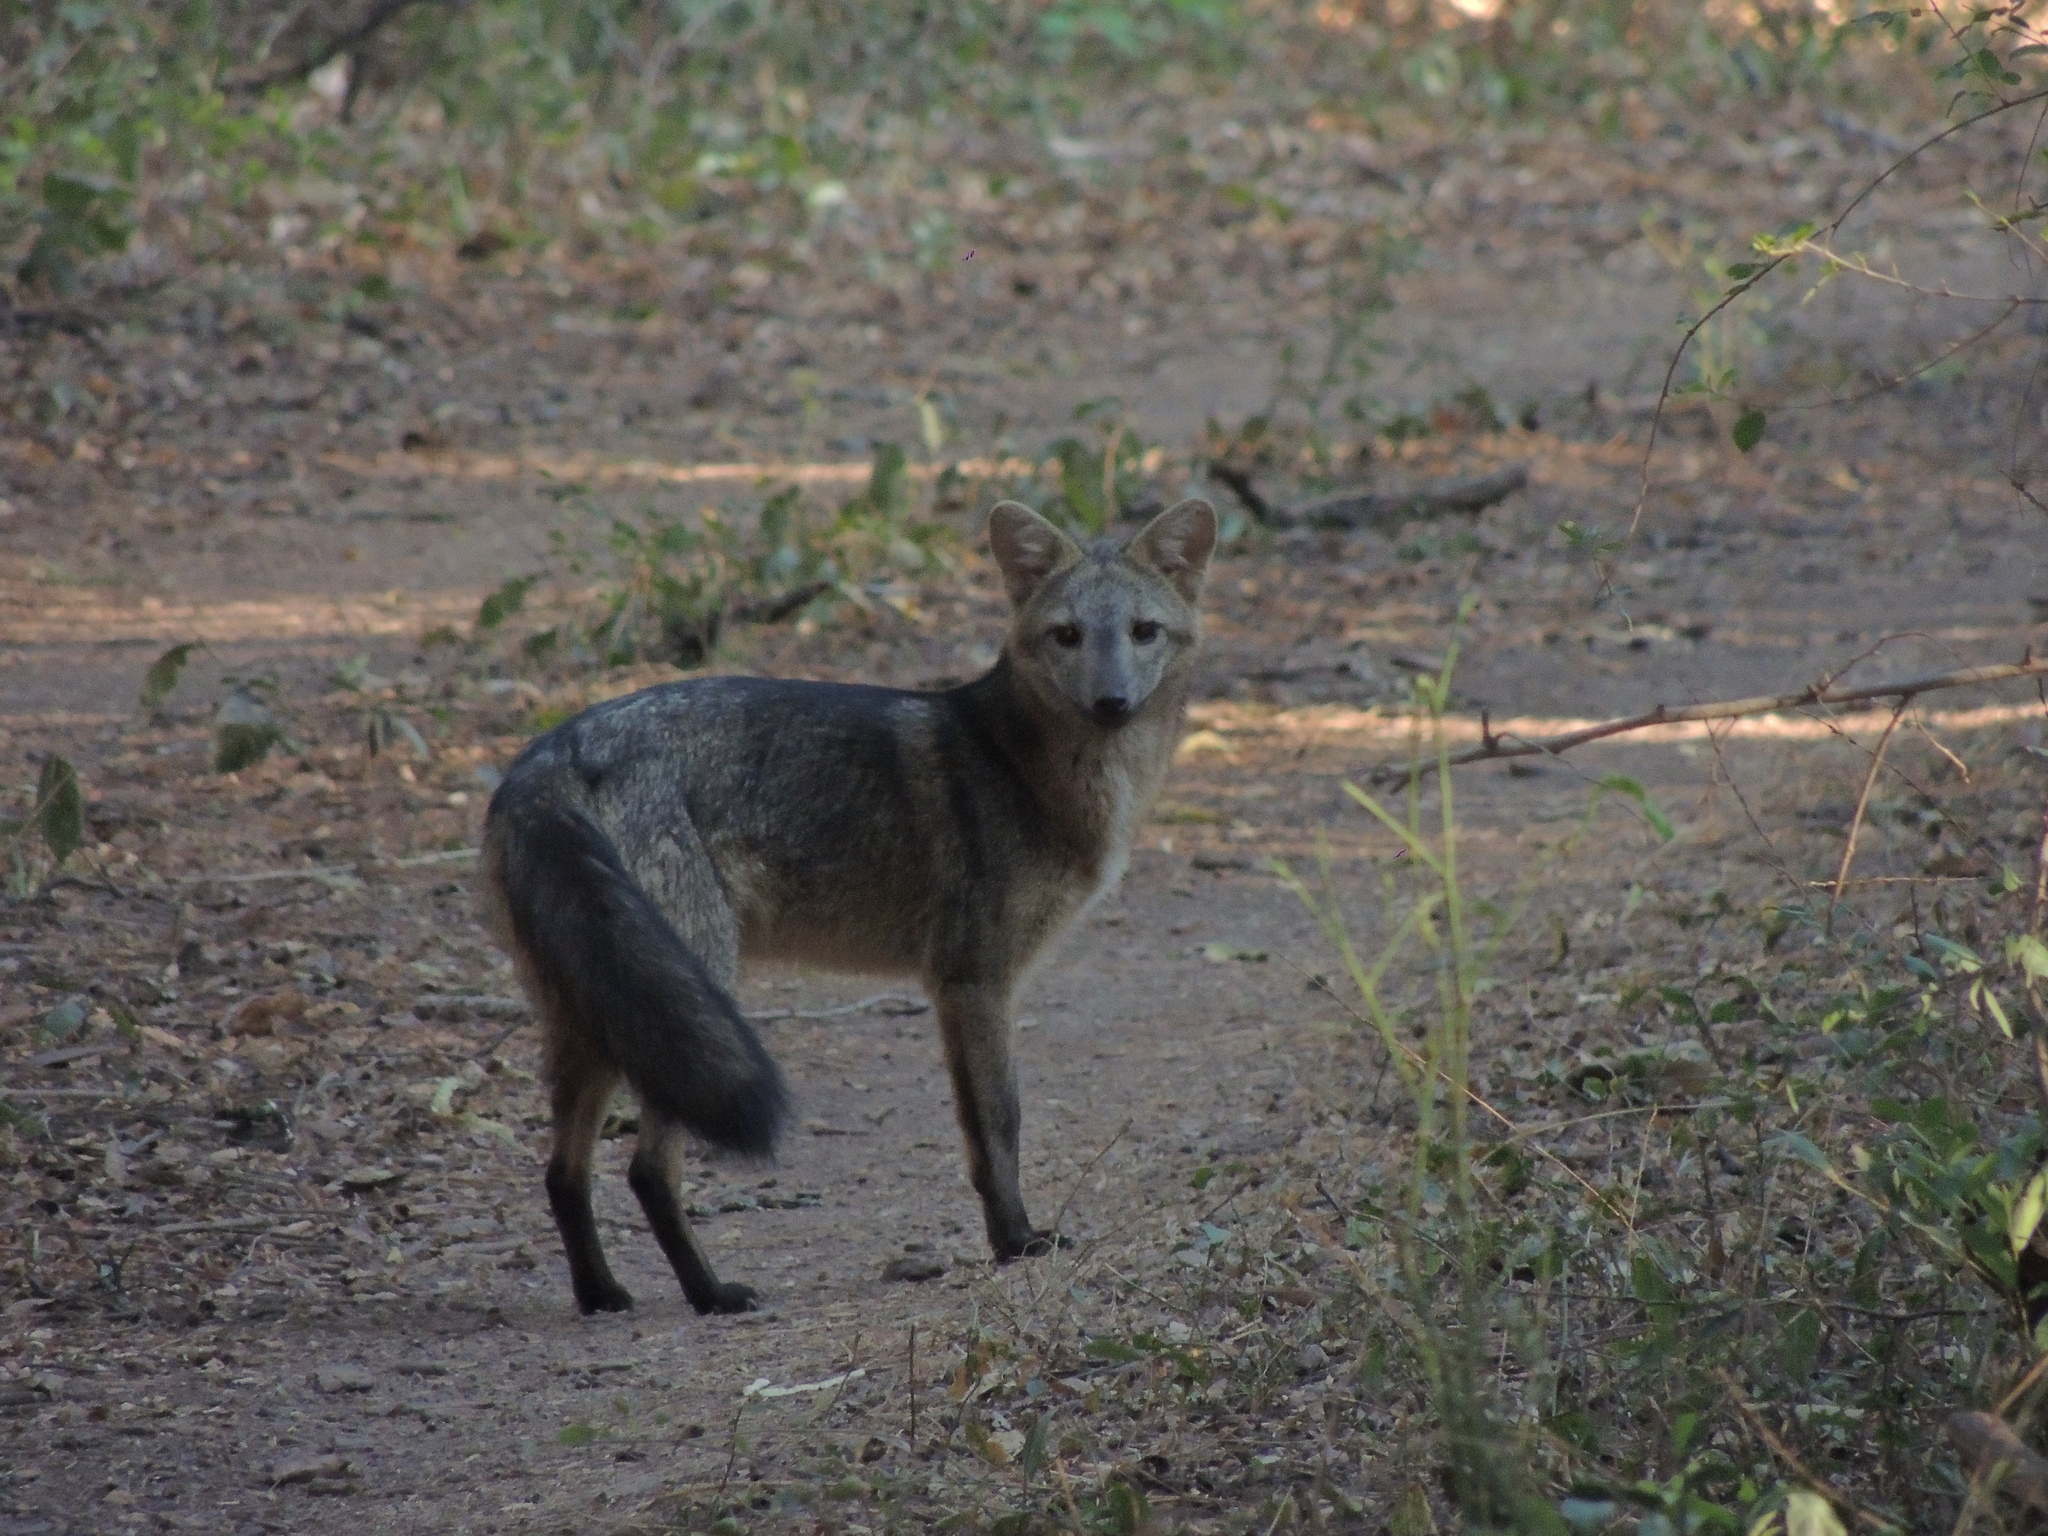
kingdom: Animalia
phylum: Chordata
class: Mammalia
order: Carnivora
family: Canidae
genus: Cerdocyon
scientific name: Cerdocyon thous
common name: Crab-eating fox
